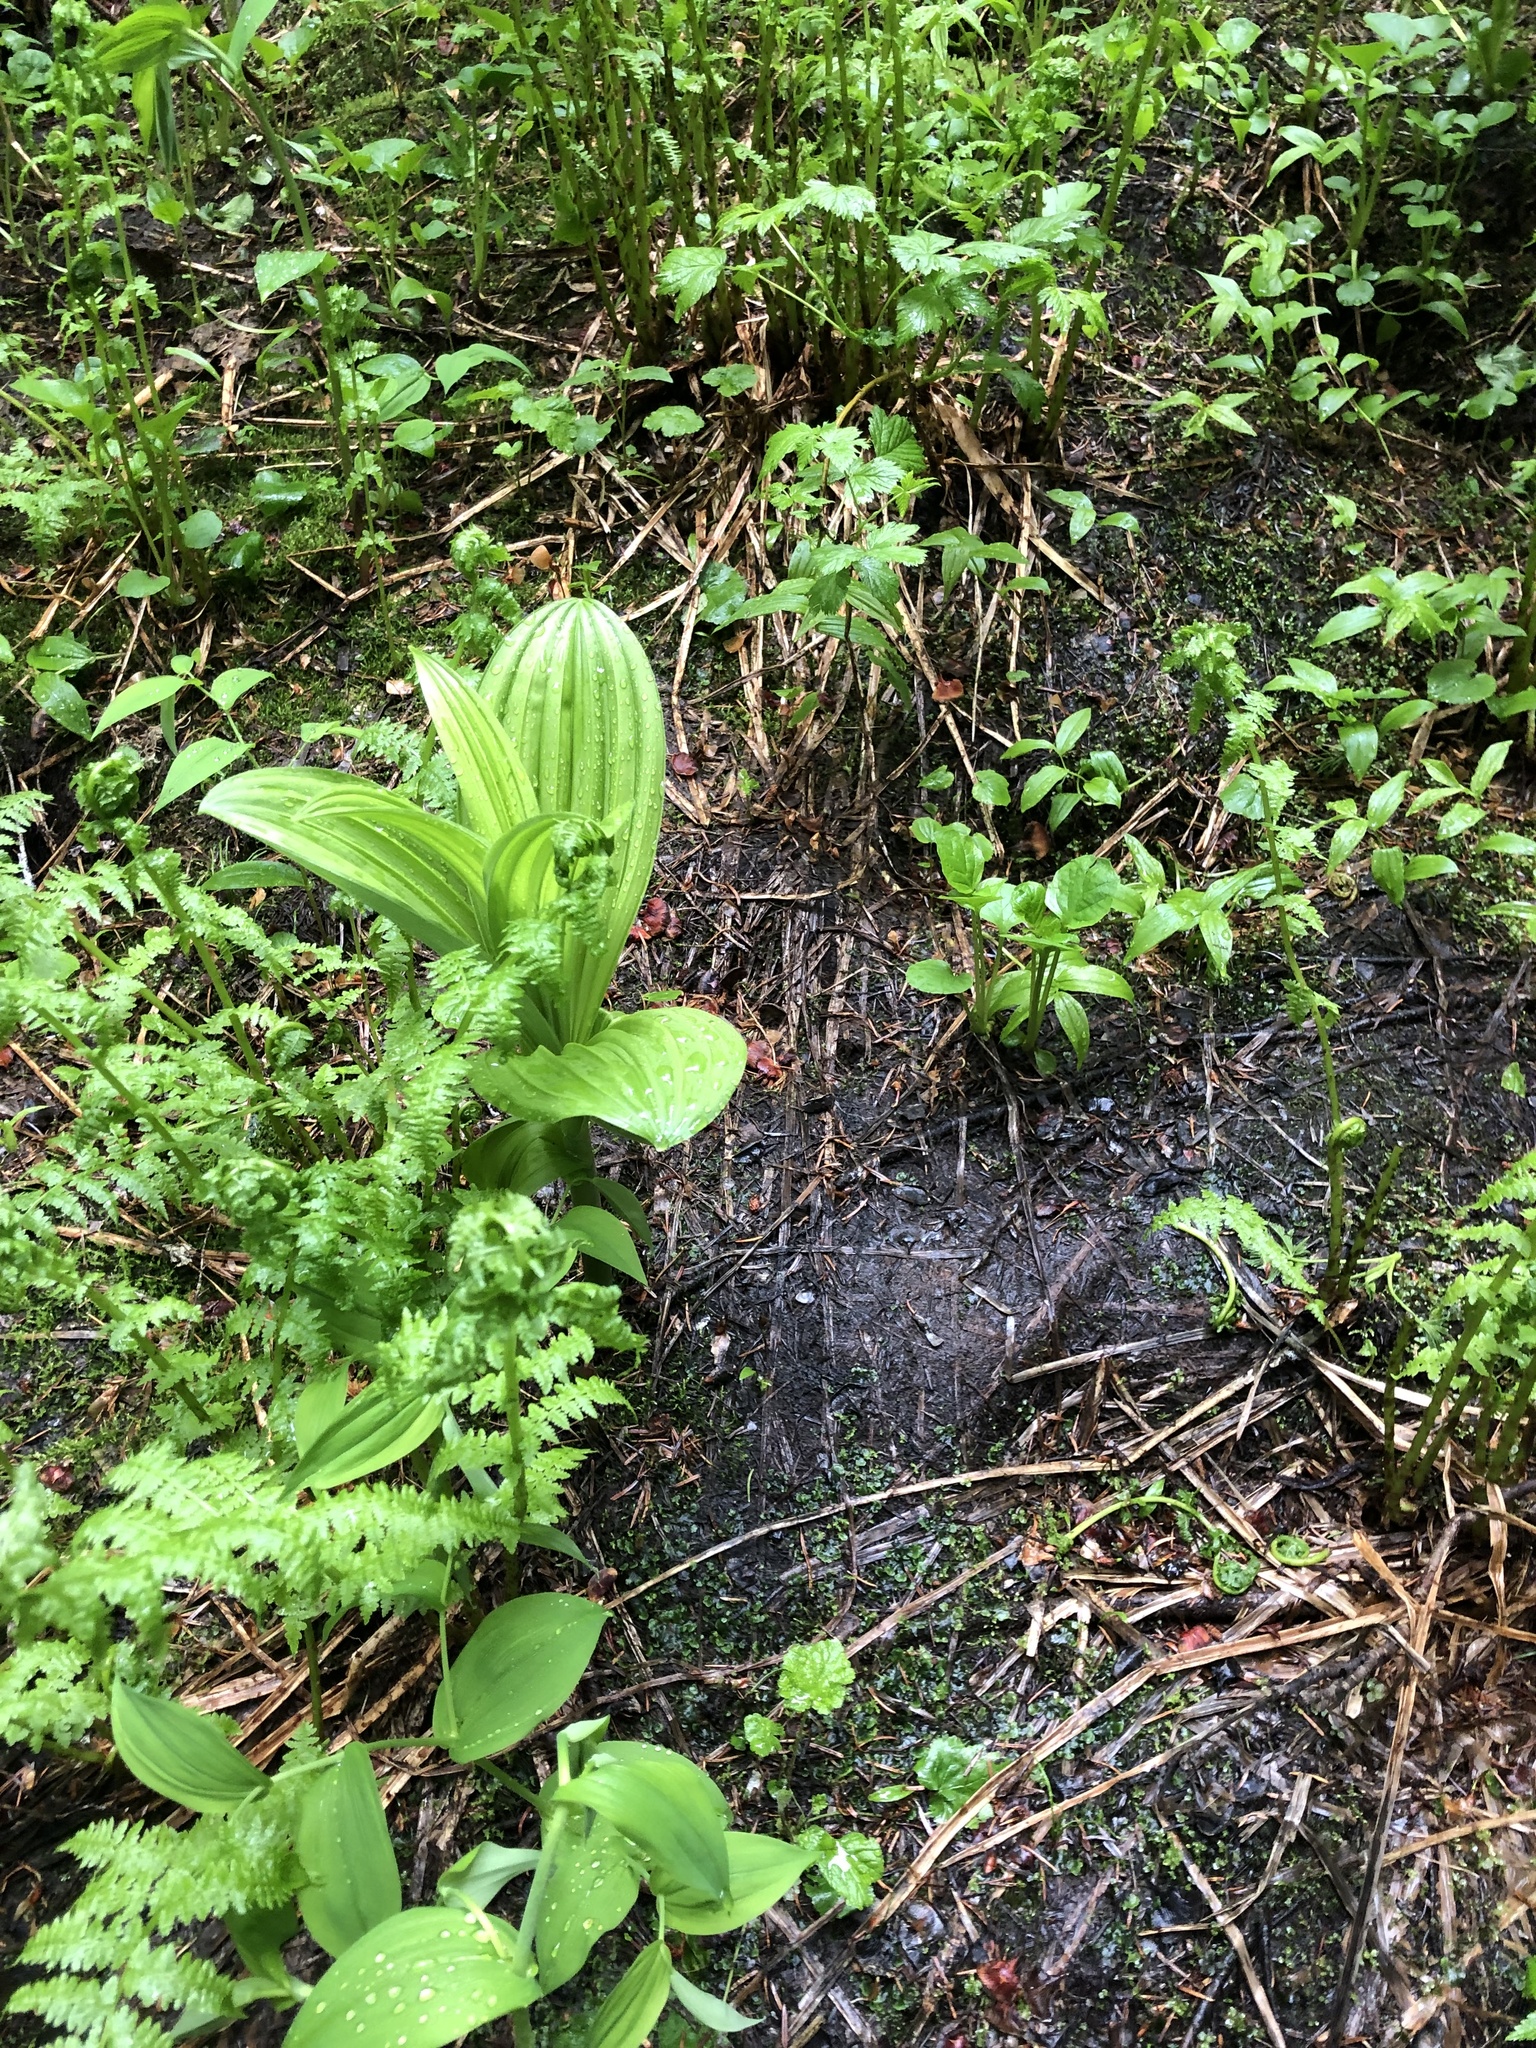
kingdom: Plantae
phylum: Tracheophyta
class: Liliopsida
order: Liliales
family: Melanthiaceae
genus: Veratrum
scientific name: Veratrum viride
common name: American false hellebore
